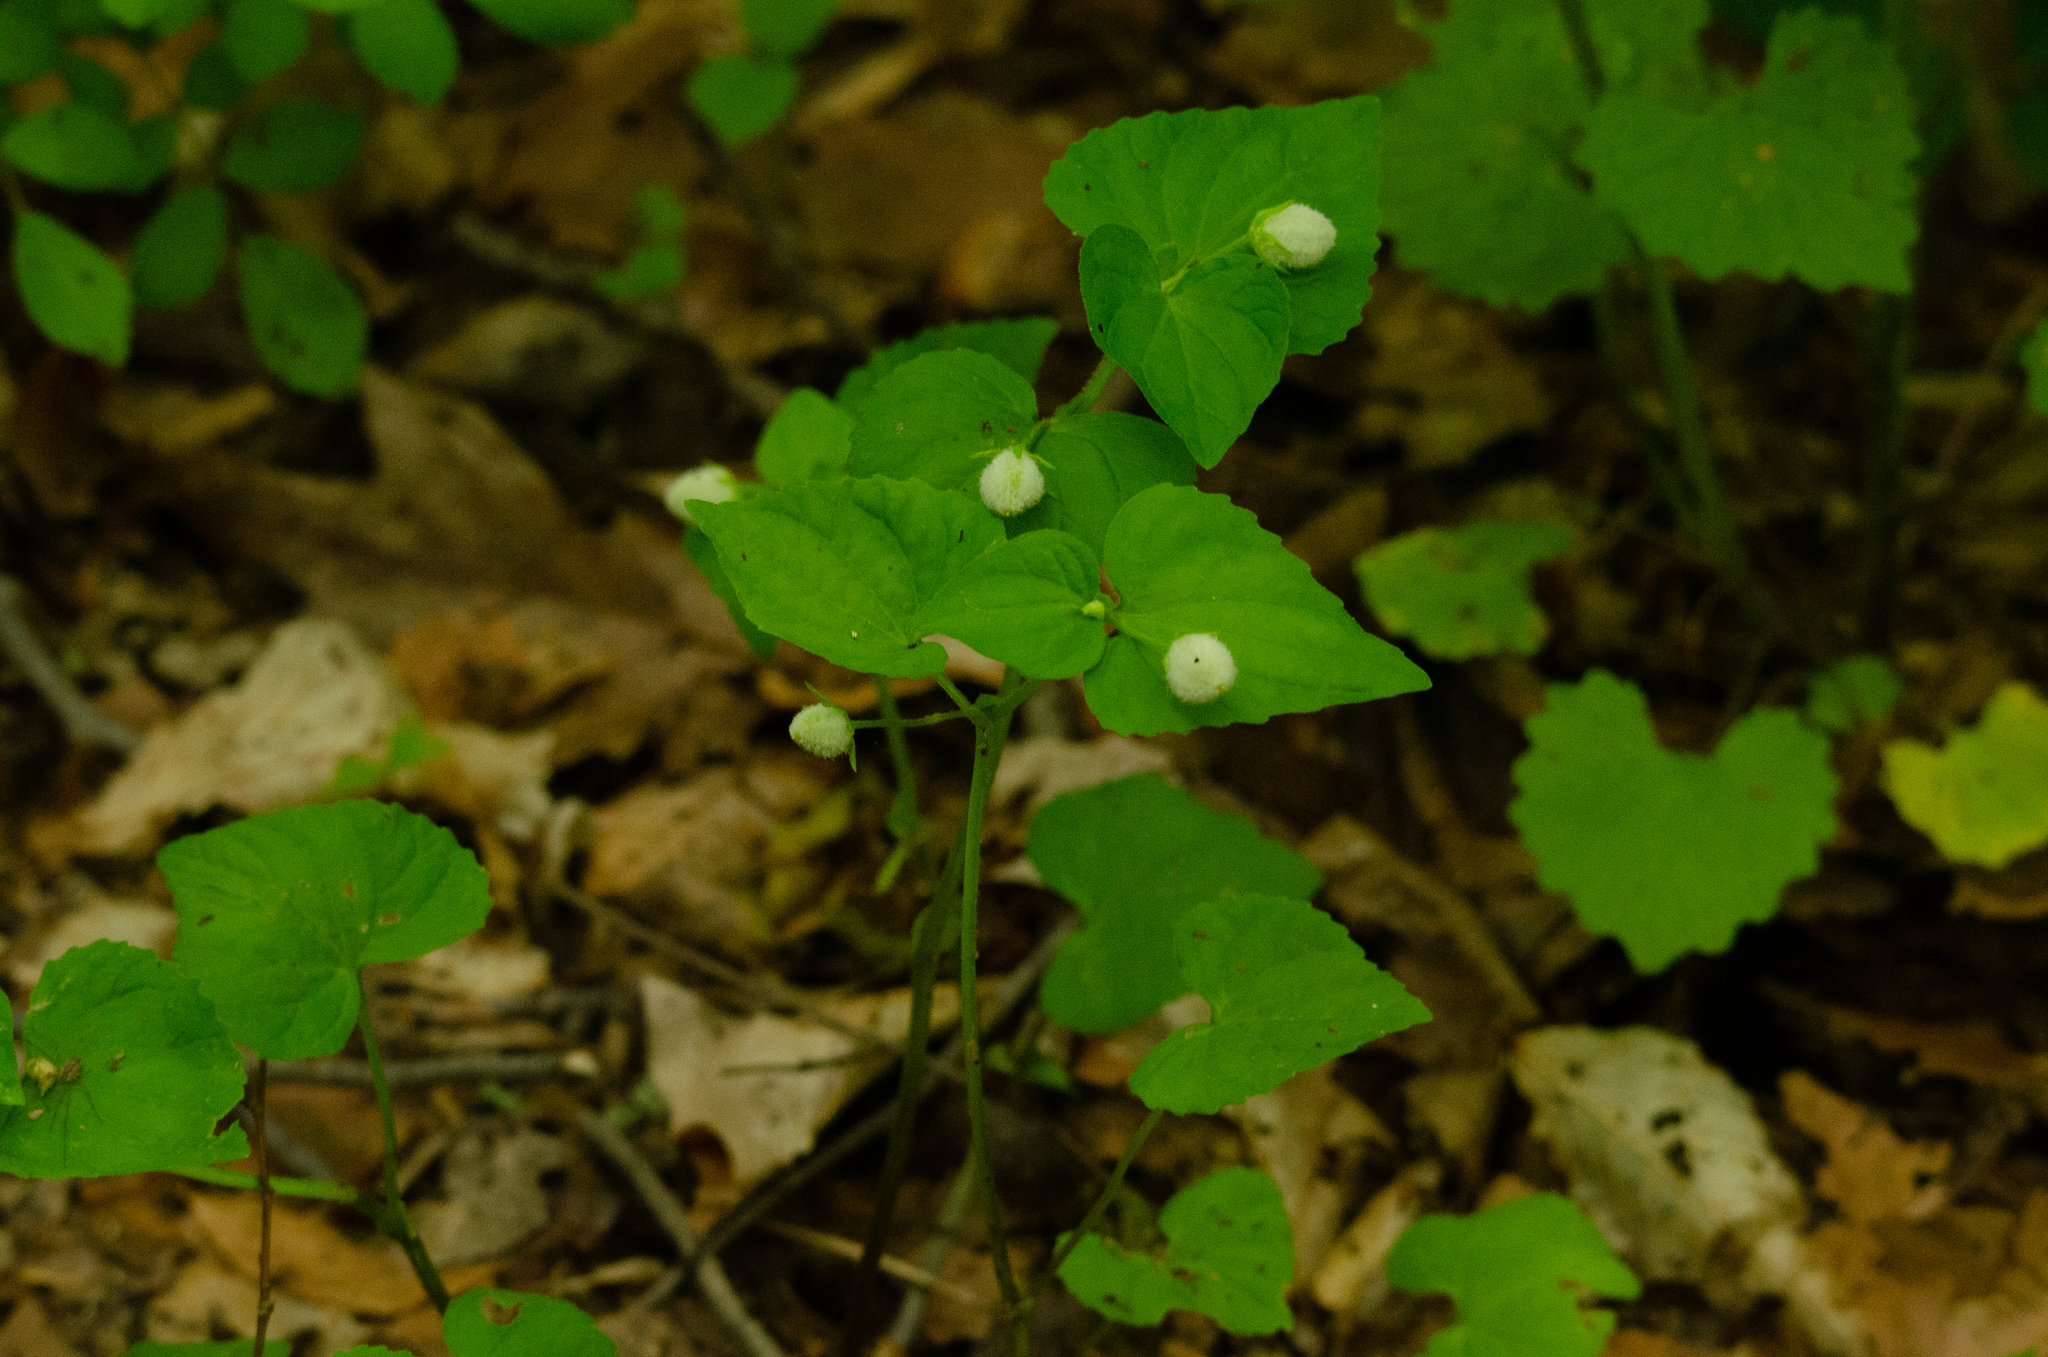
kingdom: Plantae
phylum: Tracheophyta
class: Magnoliopsida
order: Malpighiales
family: Violaceae
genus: Viola
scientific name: Viola eriocarpa
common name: Smooth yellow violet
